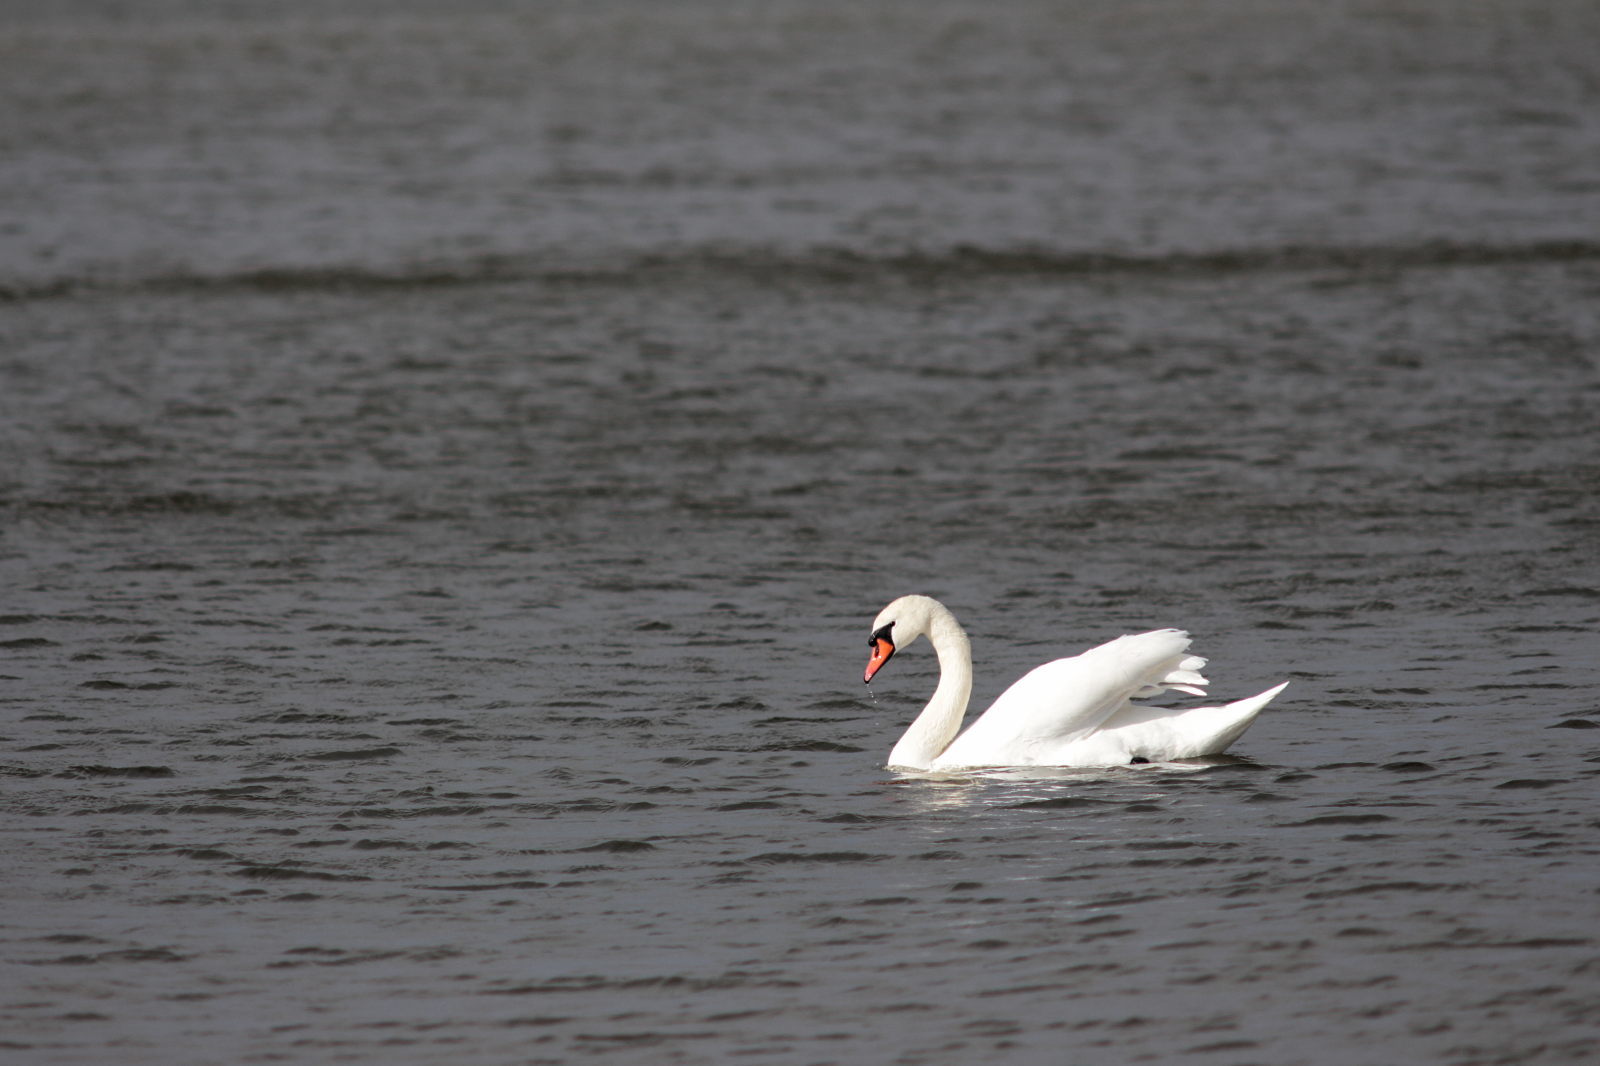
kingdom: Animalia
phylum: Chordata
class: Aves
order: Anseriformes
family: Anatidae
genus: Cygnus
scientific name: Cygnus olor
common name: Mute swan
